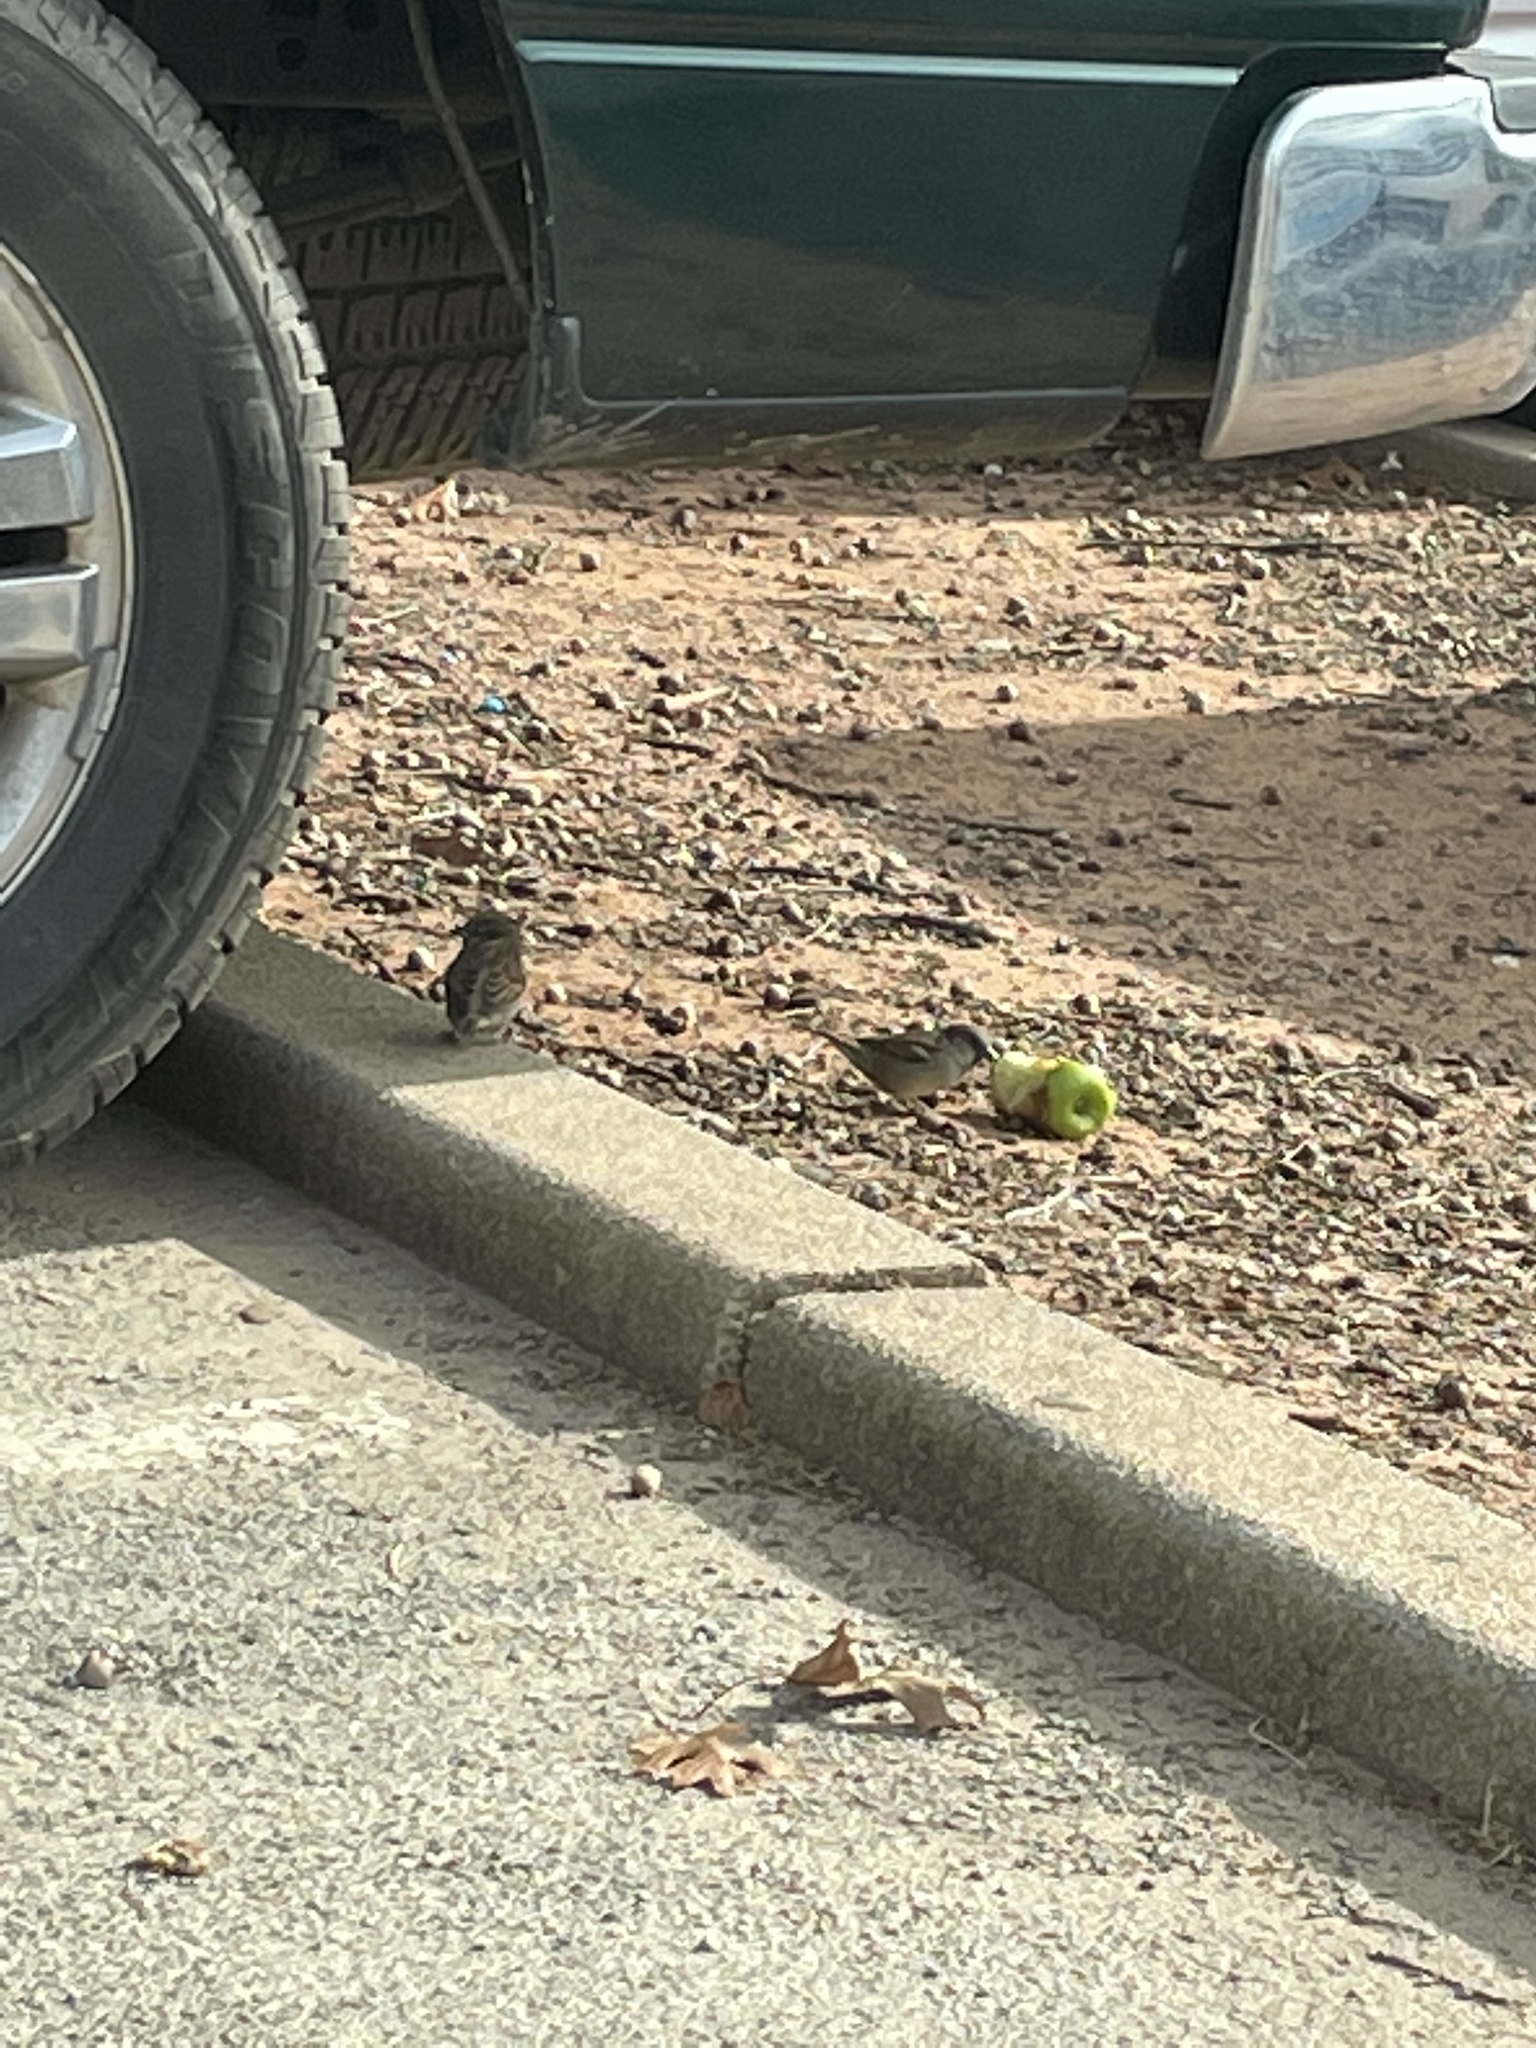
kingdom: Animalia
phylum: Chordata
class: Aves
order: Passeriformes
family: Passeridae
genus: Passer
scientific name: Passer domesticus
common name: House sparrow
